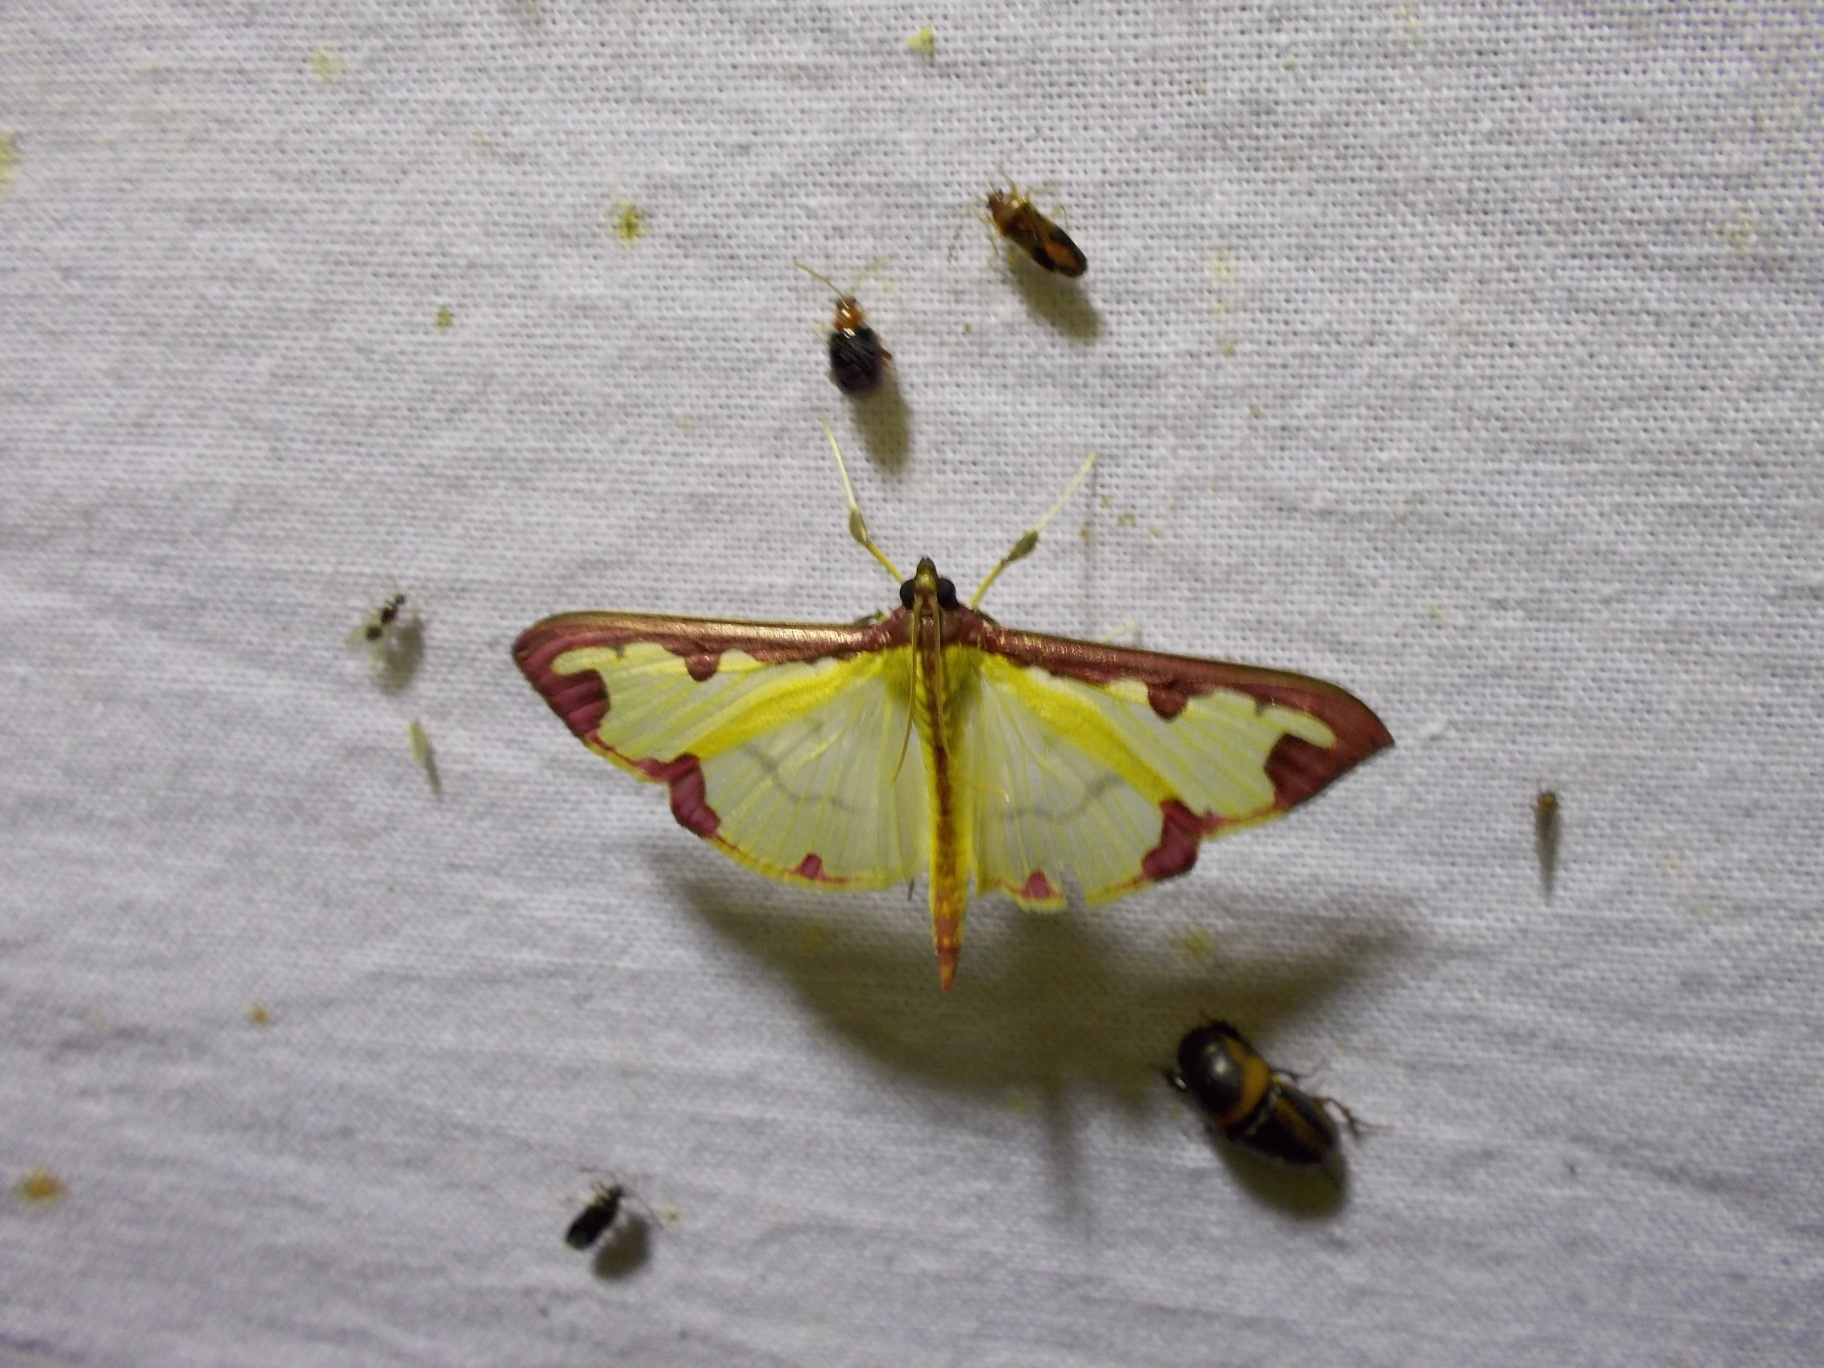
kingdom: Animalia
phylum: Arthropoda
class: Insecta
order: Lepidoptera
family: Crambidae
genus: Cadarena
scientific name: Cadarena pudoraria
